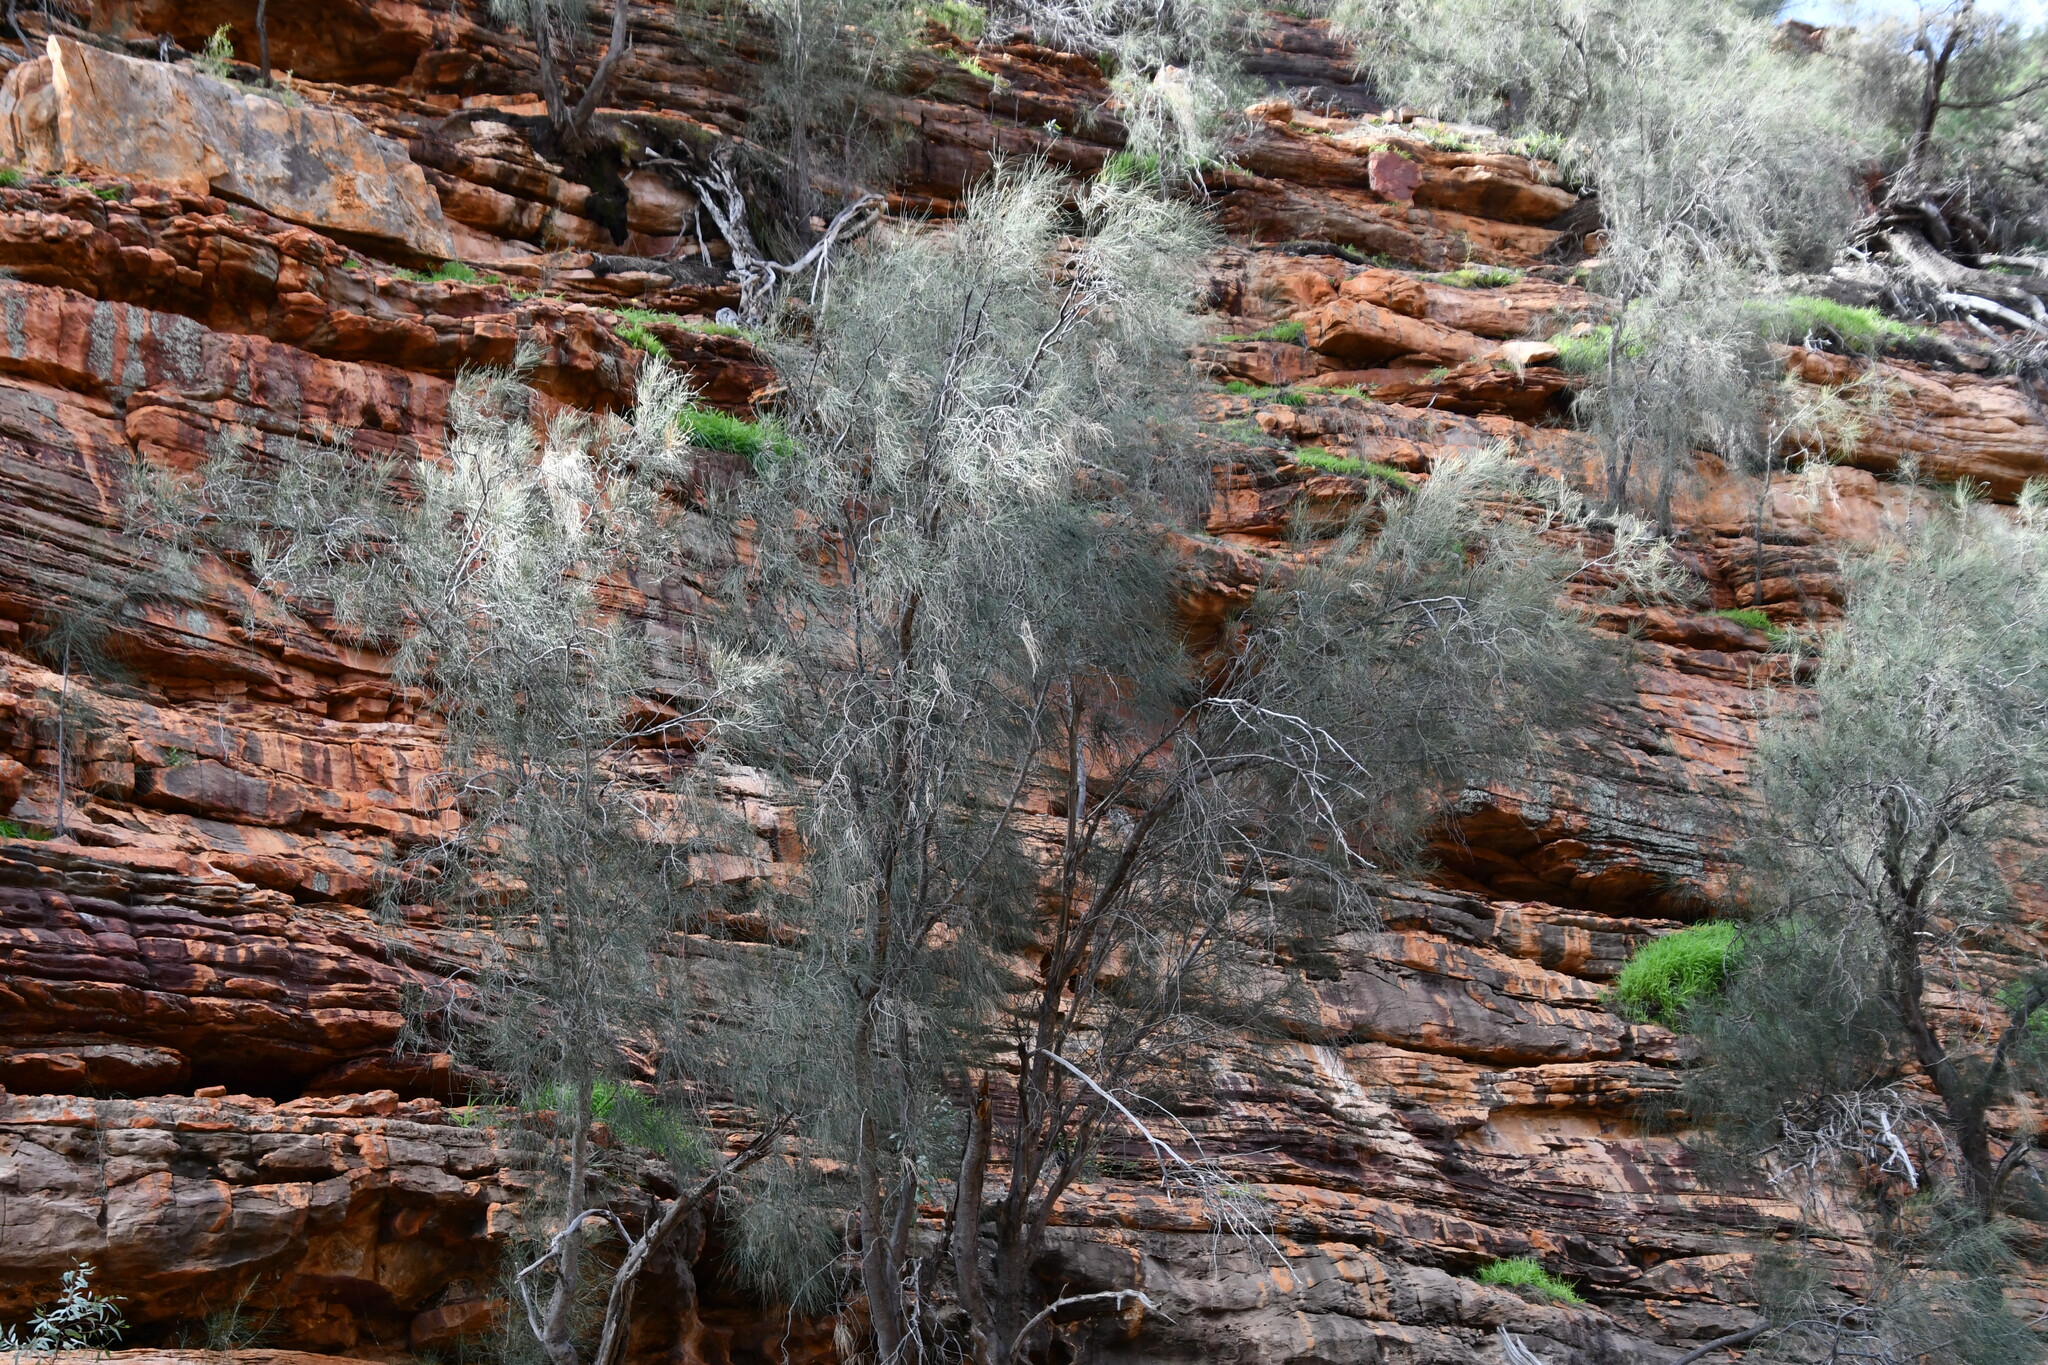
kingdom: Plantae
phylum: Tracheophyta
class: Magnoliopsida
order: Fagales
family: Casuarinaceae
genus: Casuarina
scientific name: Casuarina obesa
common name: Swamp she-oak
